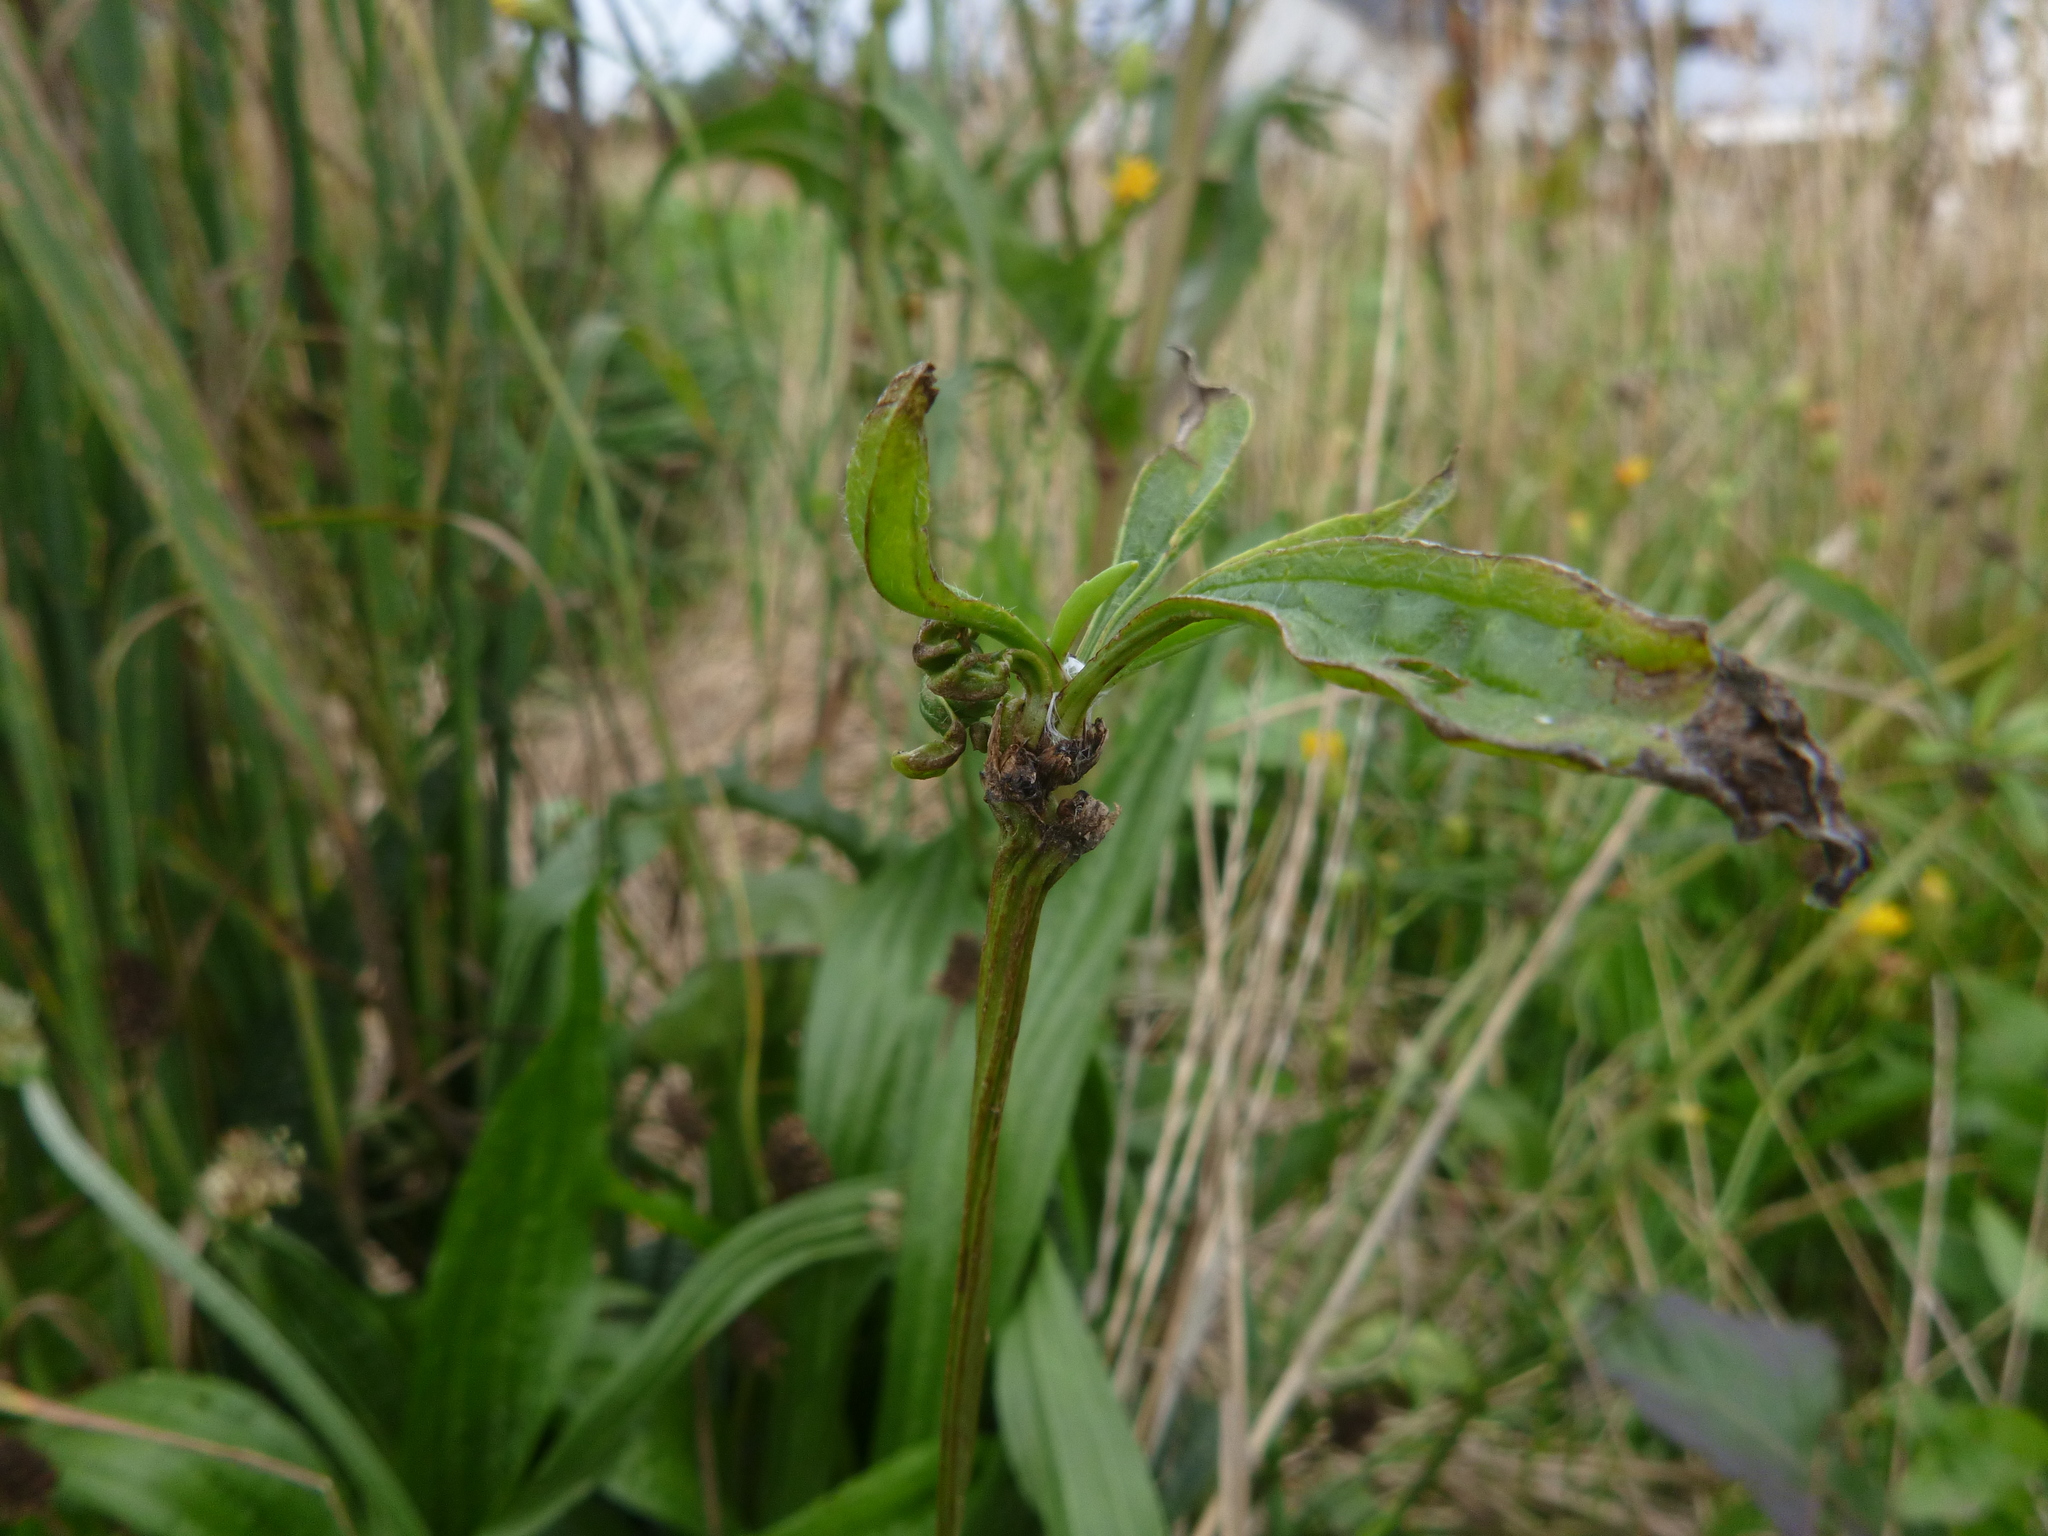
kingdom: Plantae
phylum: Tracheophyta
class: Magnoliopsida
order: Lamiales
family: Plantaginaceae
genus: Plantago
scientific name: Plantago lanceolata
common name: Ribwort plantain
